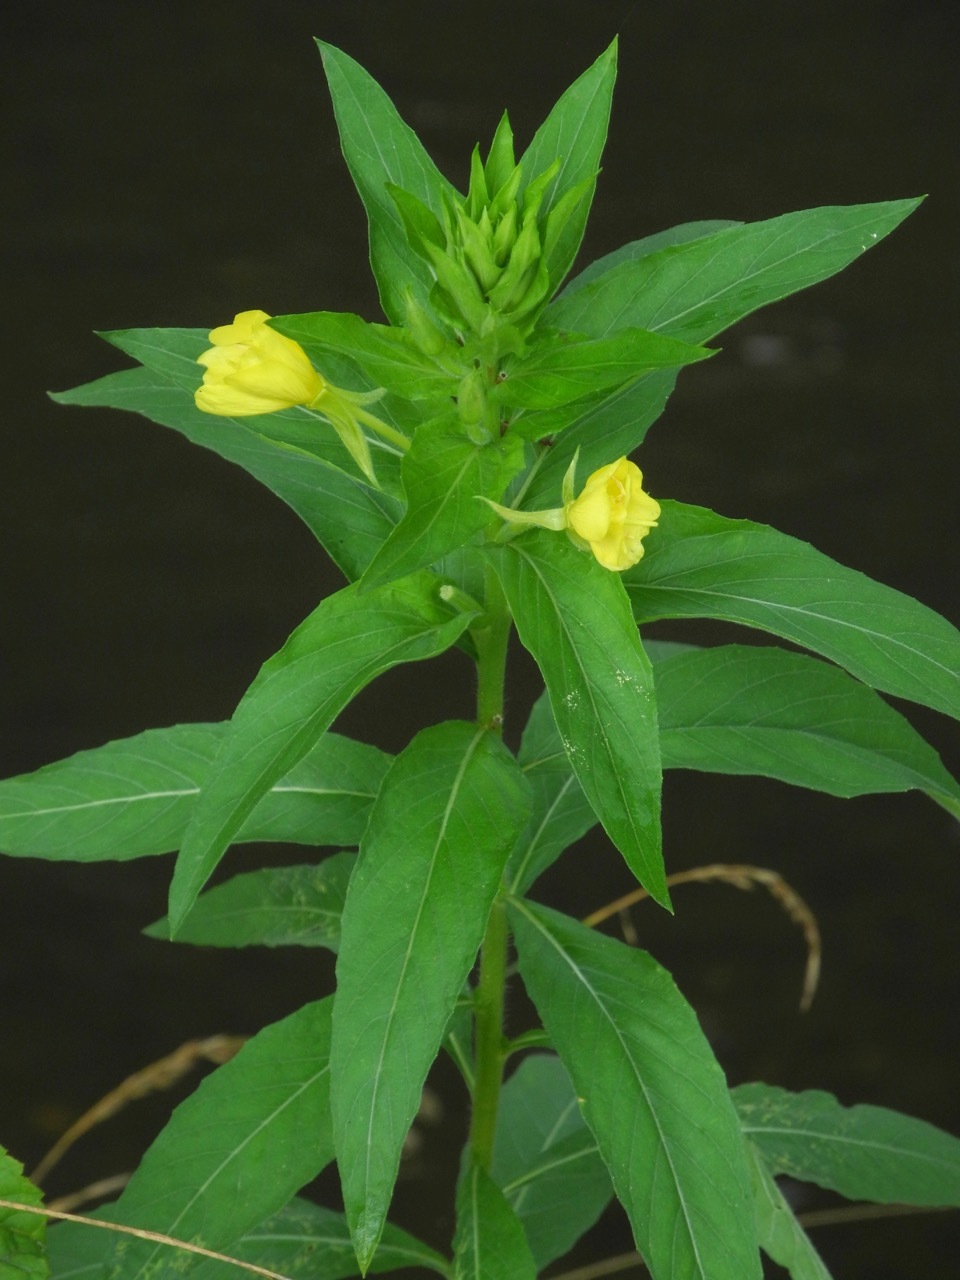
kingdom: Plantae
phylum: Tracheophyta
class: Magnoliopsida
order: Myrtales
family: Onagraceae
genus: Oenothera
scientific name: Oenothera biennis
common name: Common evening-primrose
